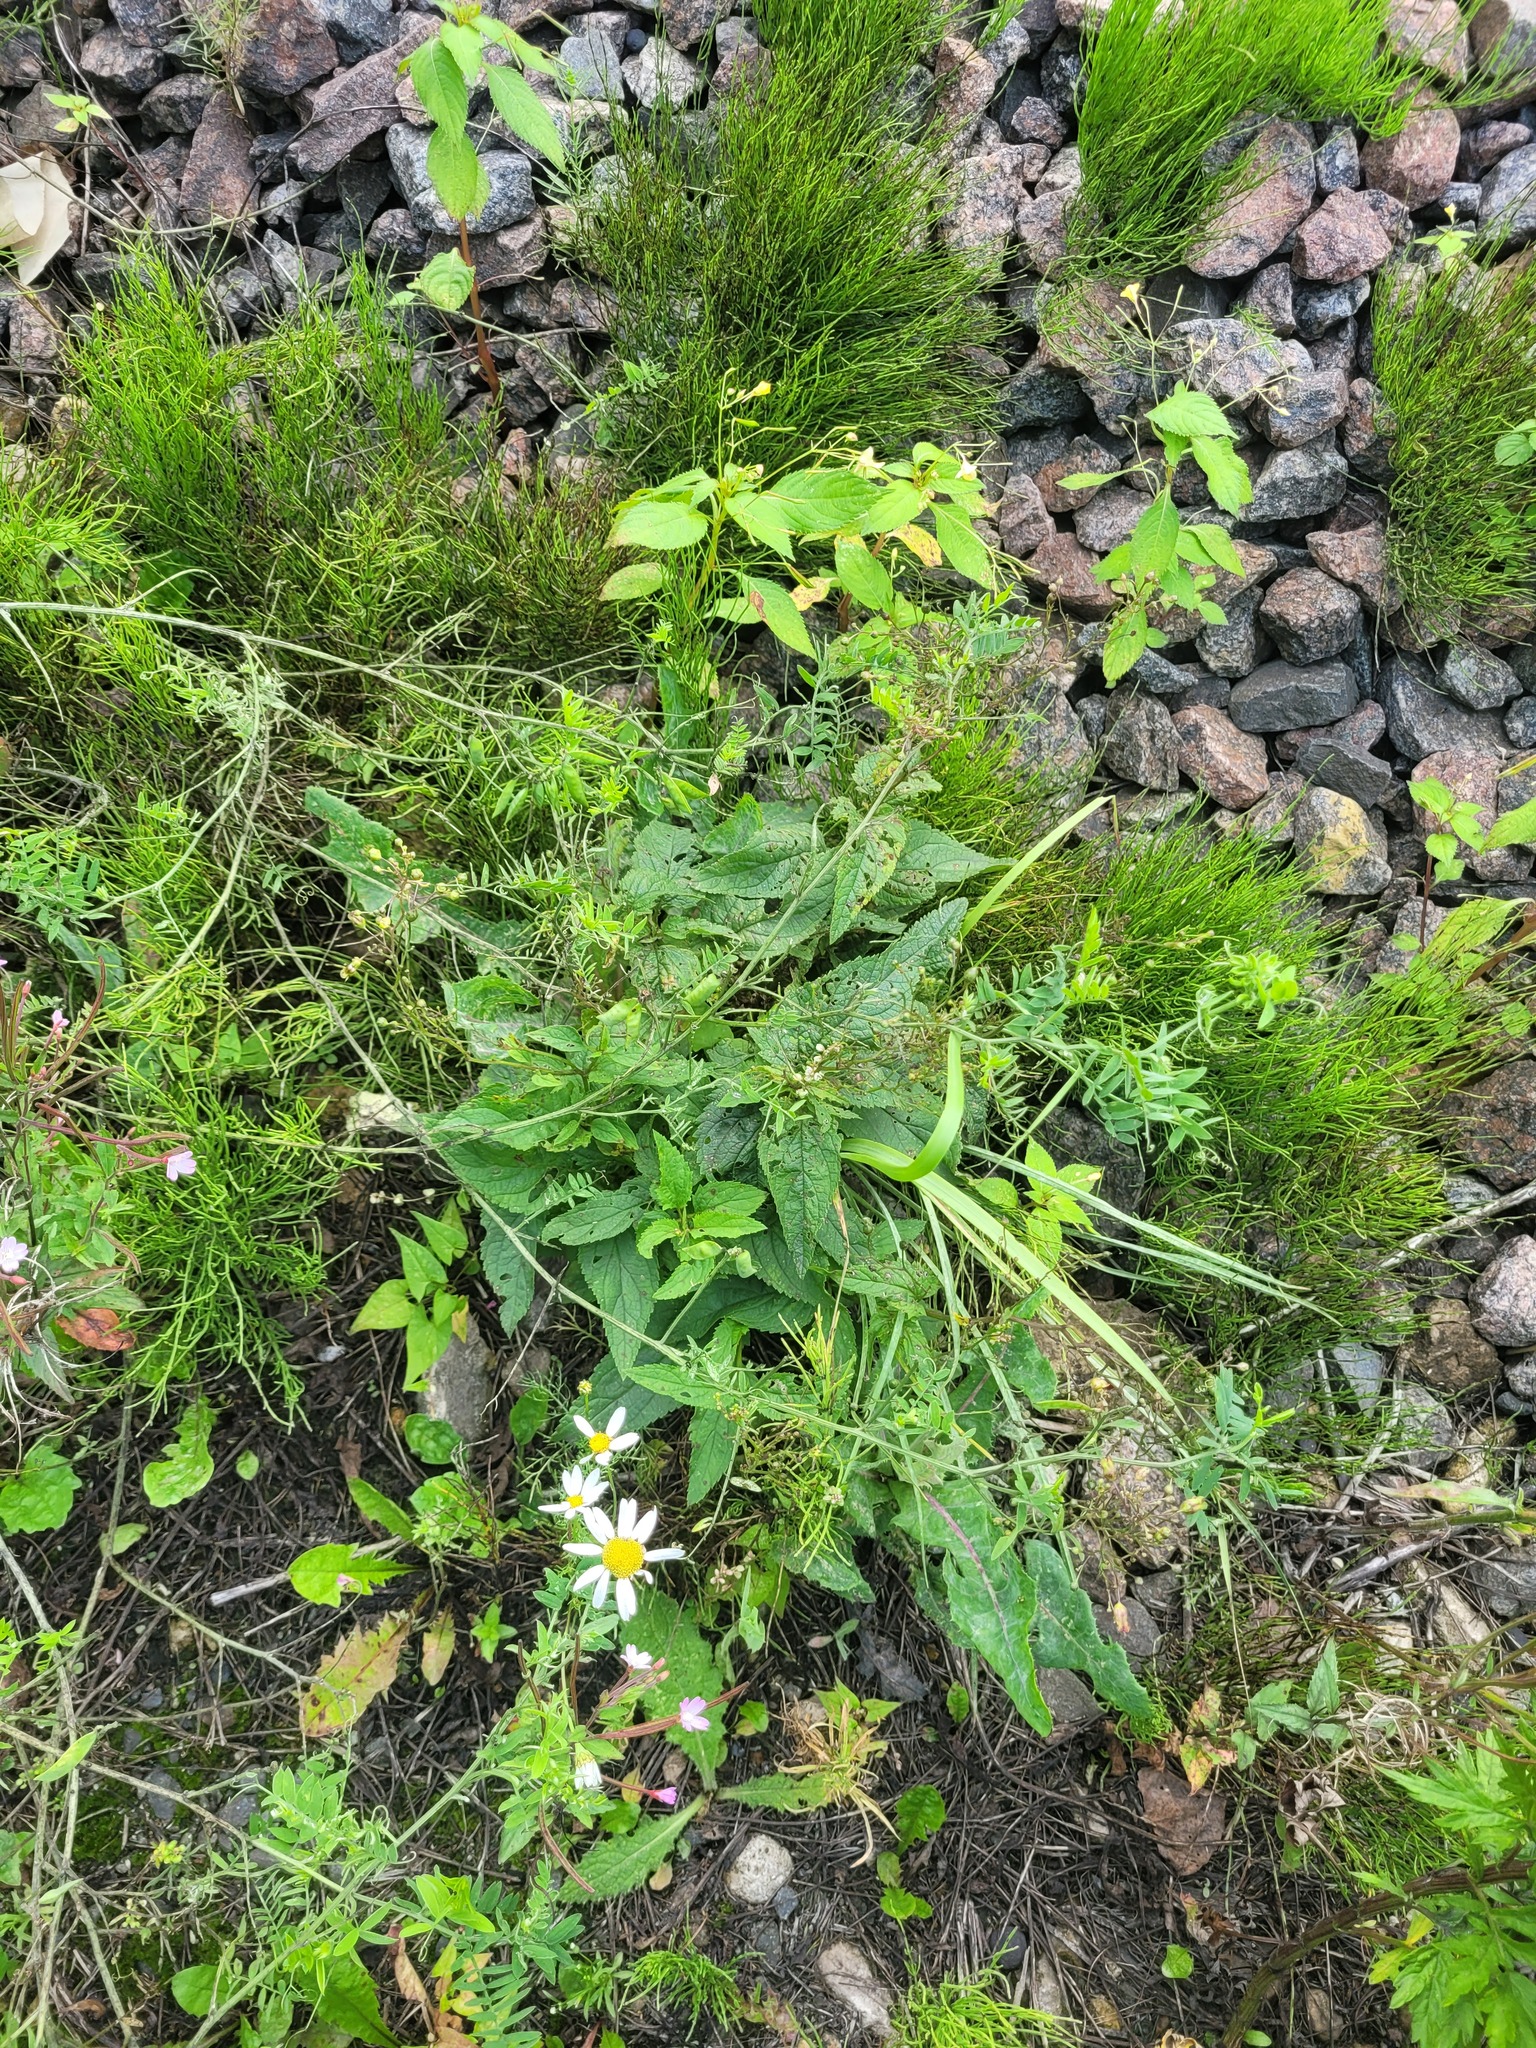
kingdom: Plantae
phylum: Tracheophyta
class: Magnoliopsida
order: Lamiales
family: Scrophulariaceae
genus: Scrophularia
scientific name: Scrophularia nodosa
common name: Common figwort
